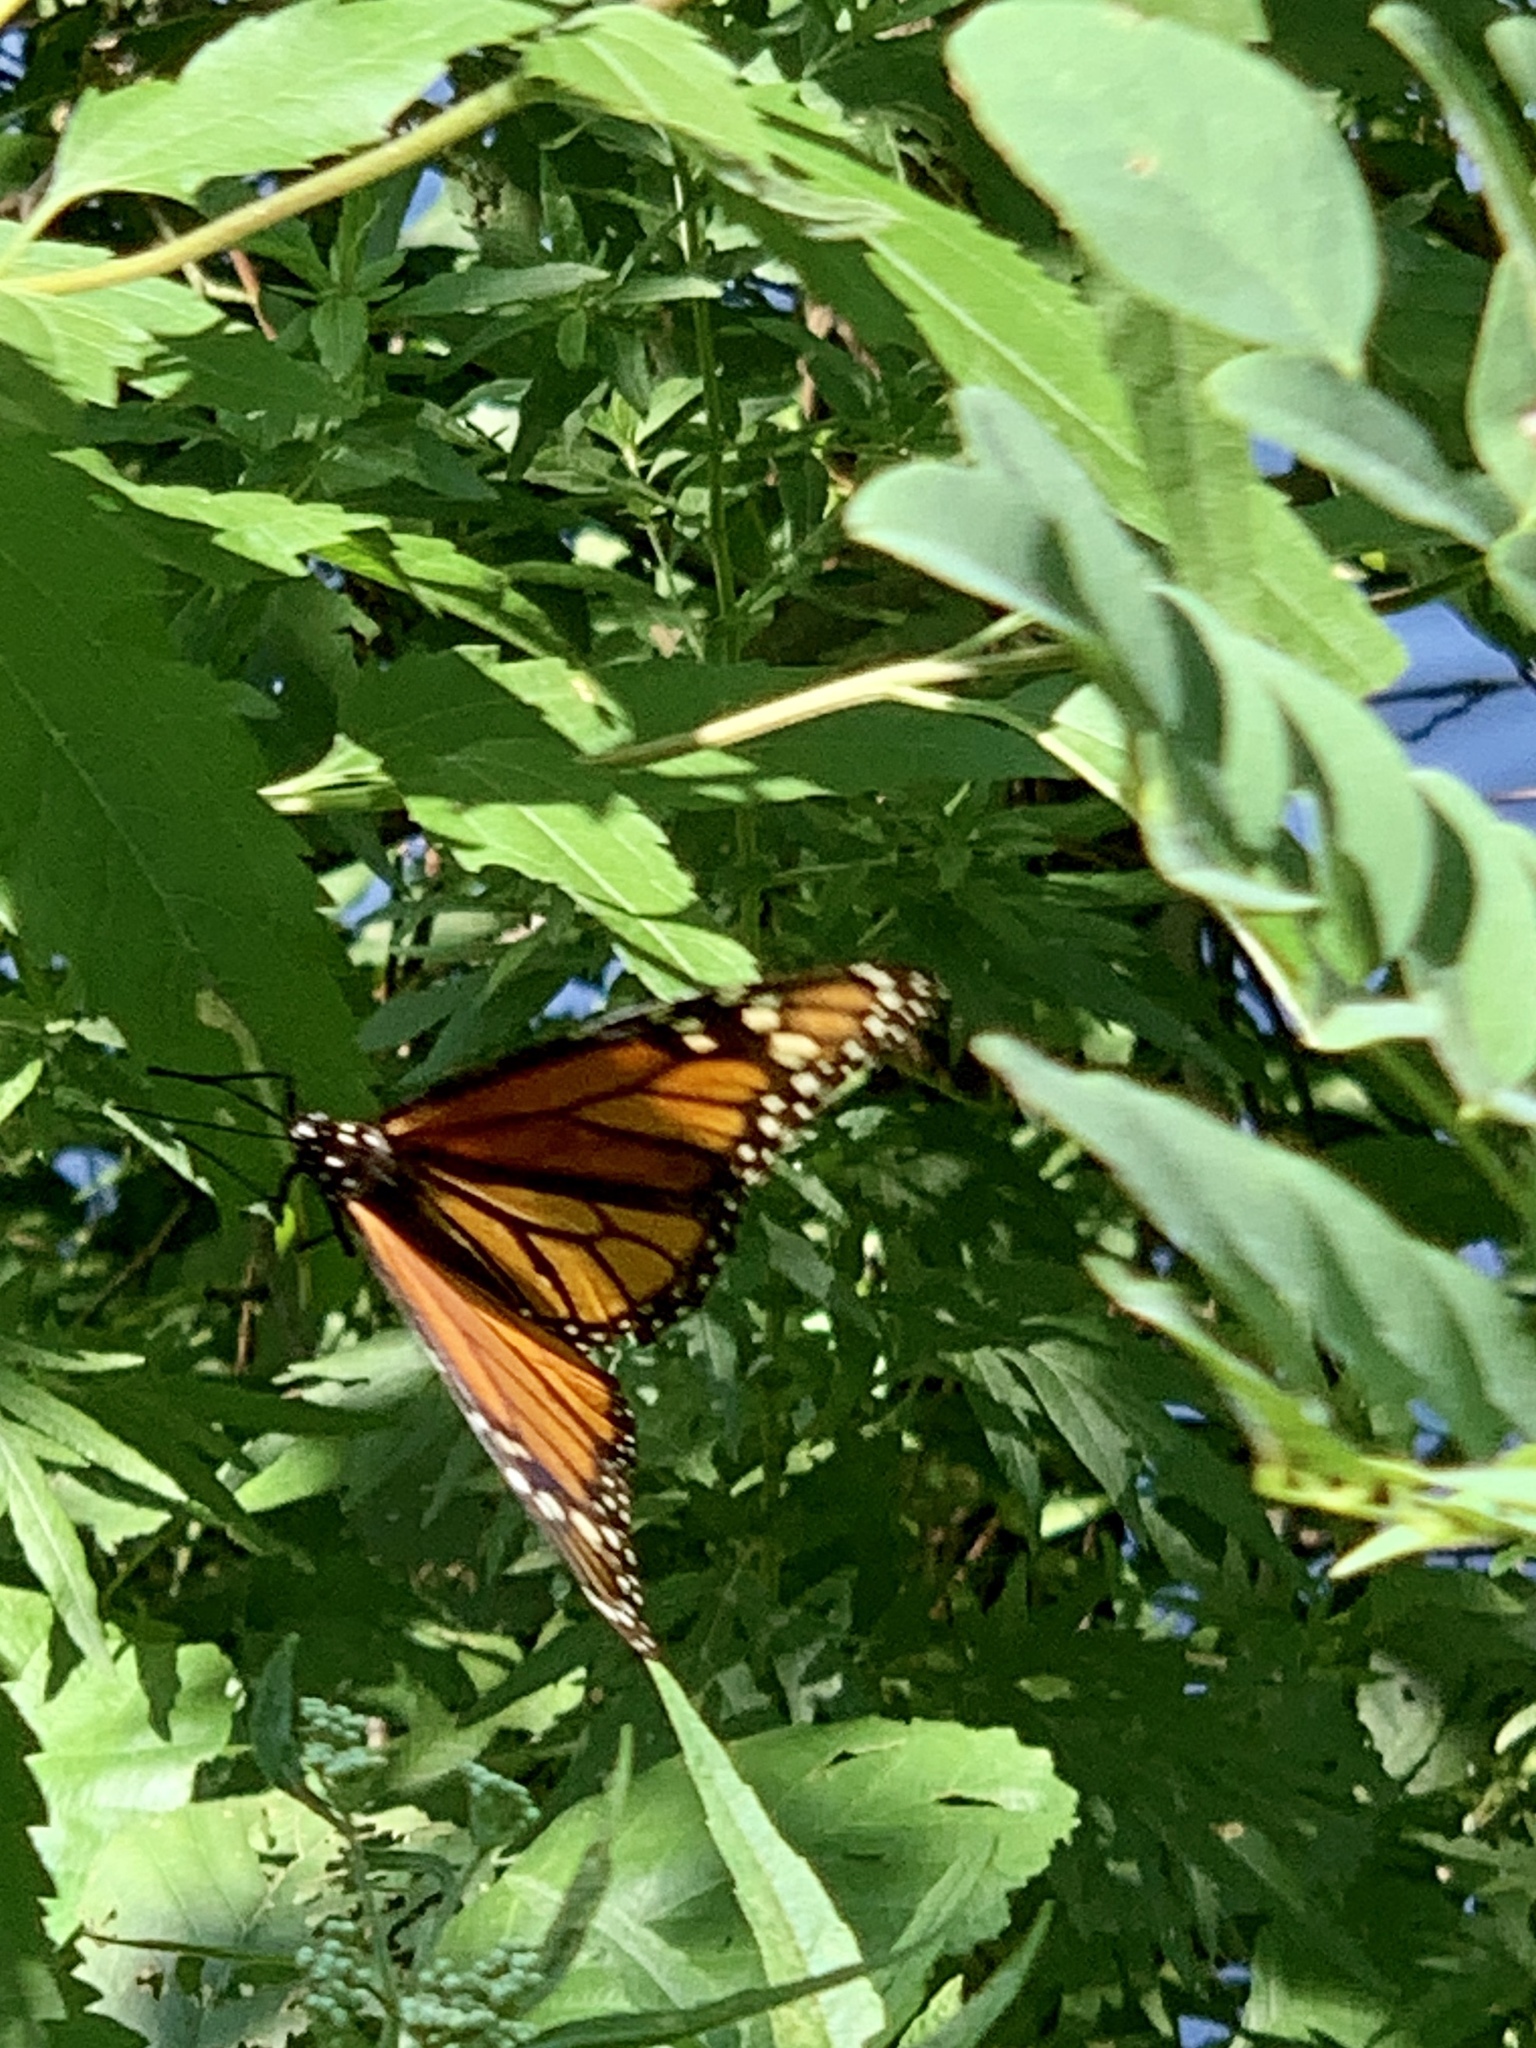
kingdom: Animalia
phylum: Arthropoda
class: Insecta
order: Lepidoptera
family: Nymphalidae
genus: Danaus
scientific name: Danaus plexippus
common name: Monarch
